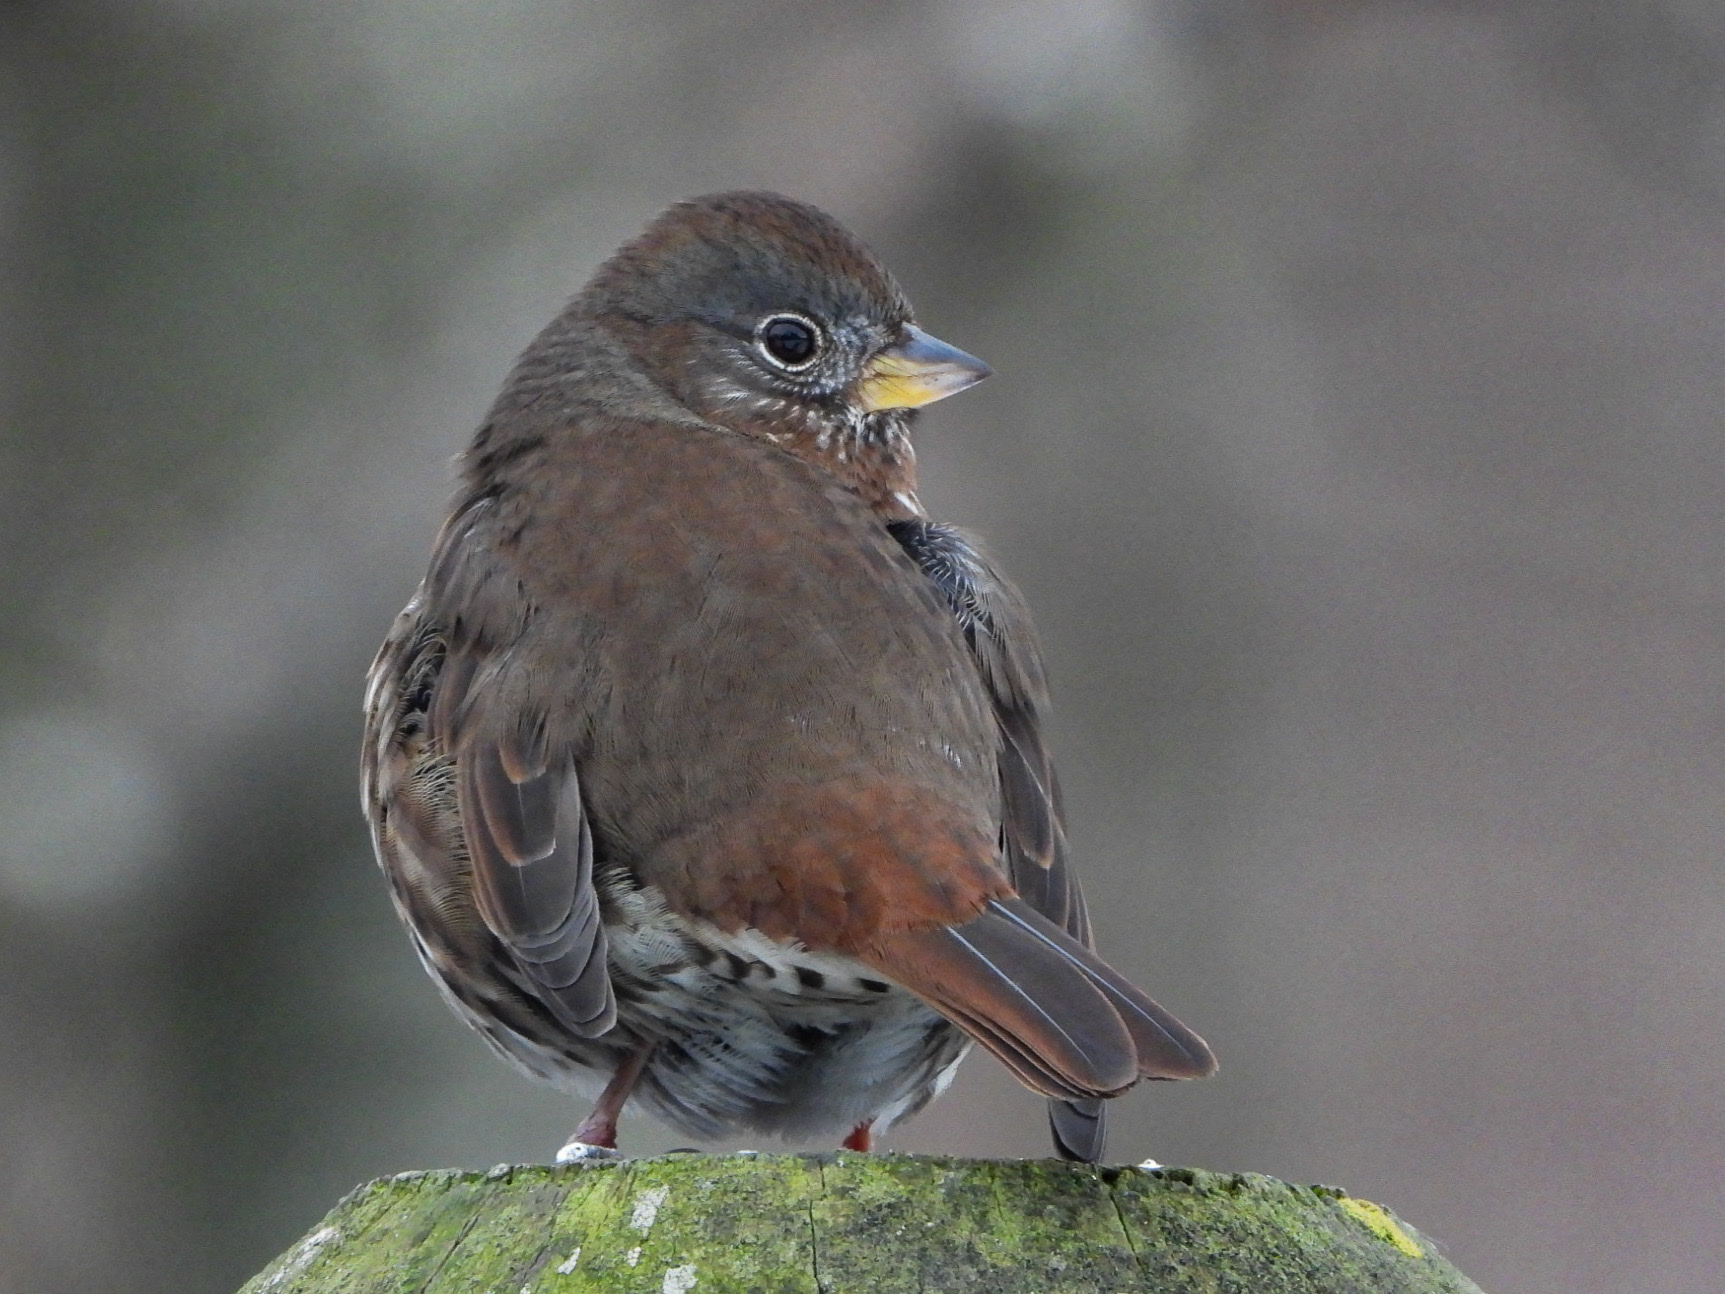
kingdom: Animalia
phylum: Chordata
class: Aves
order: Passeriformes
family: Passerellidae
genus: Passerella
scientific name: Passerella iliaca
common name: Fox sparrow
